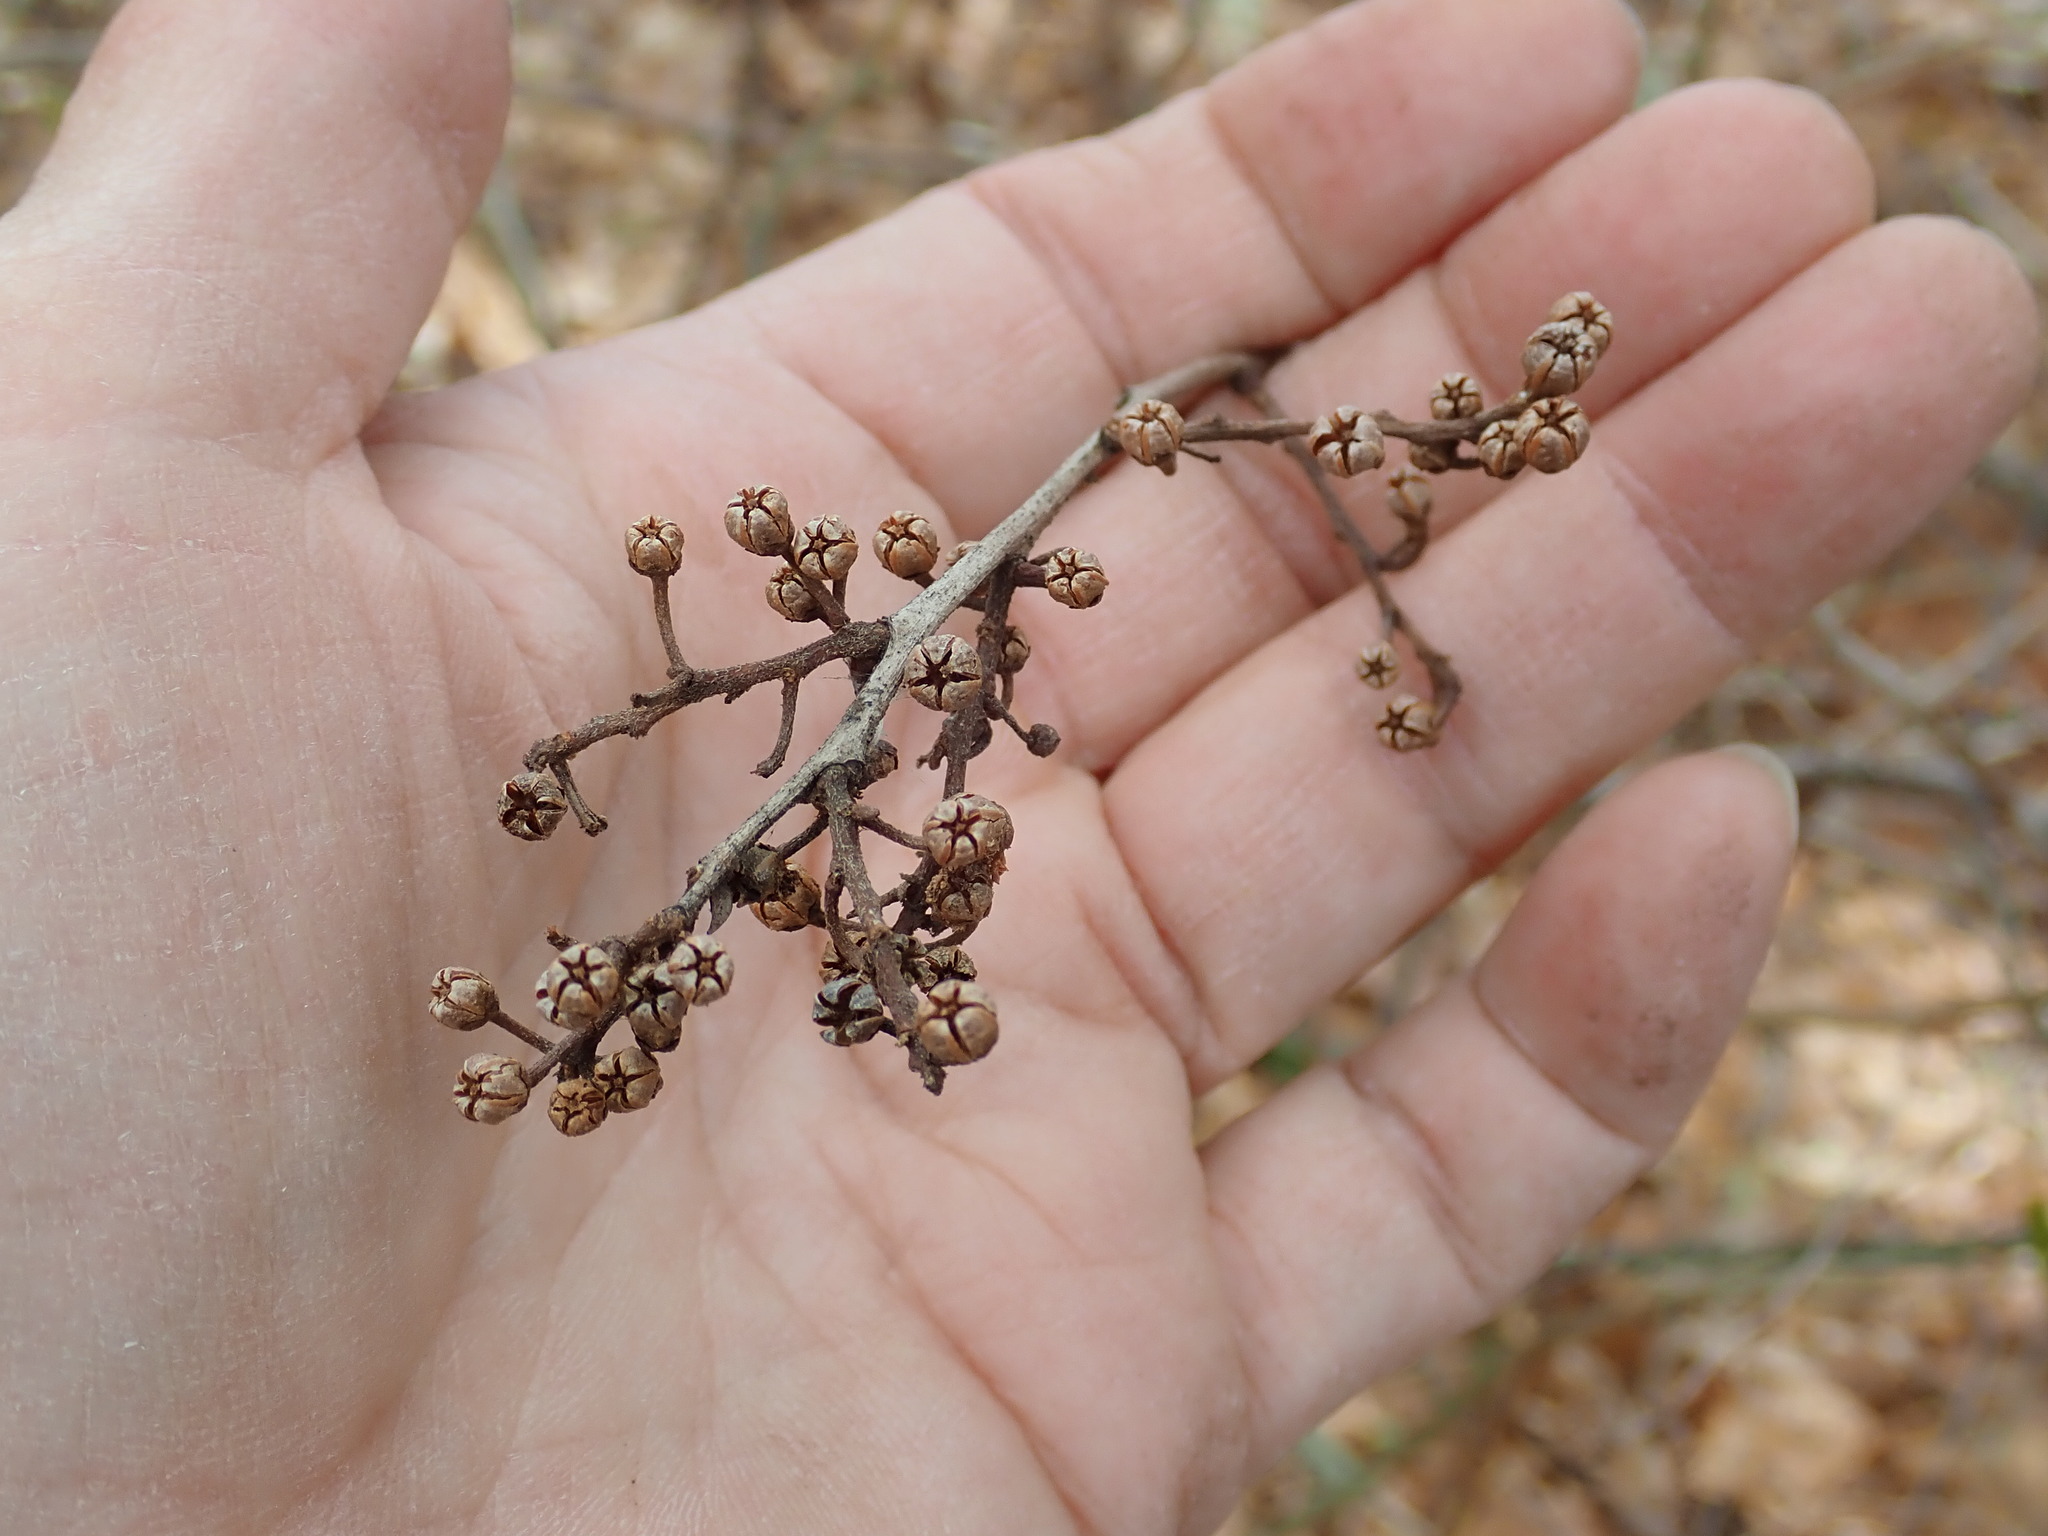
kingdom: Plantae
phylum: Tracheophyta
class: Magnoliopsida
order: Ericales
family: Ericaceae
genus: Lyonia
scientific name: Lyonia ligustrina
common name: Maleberry
